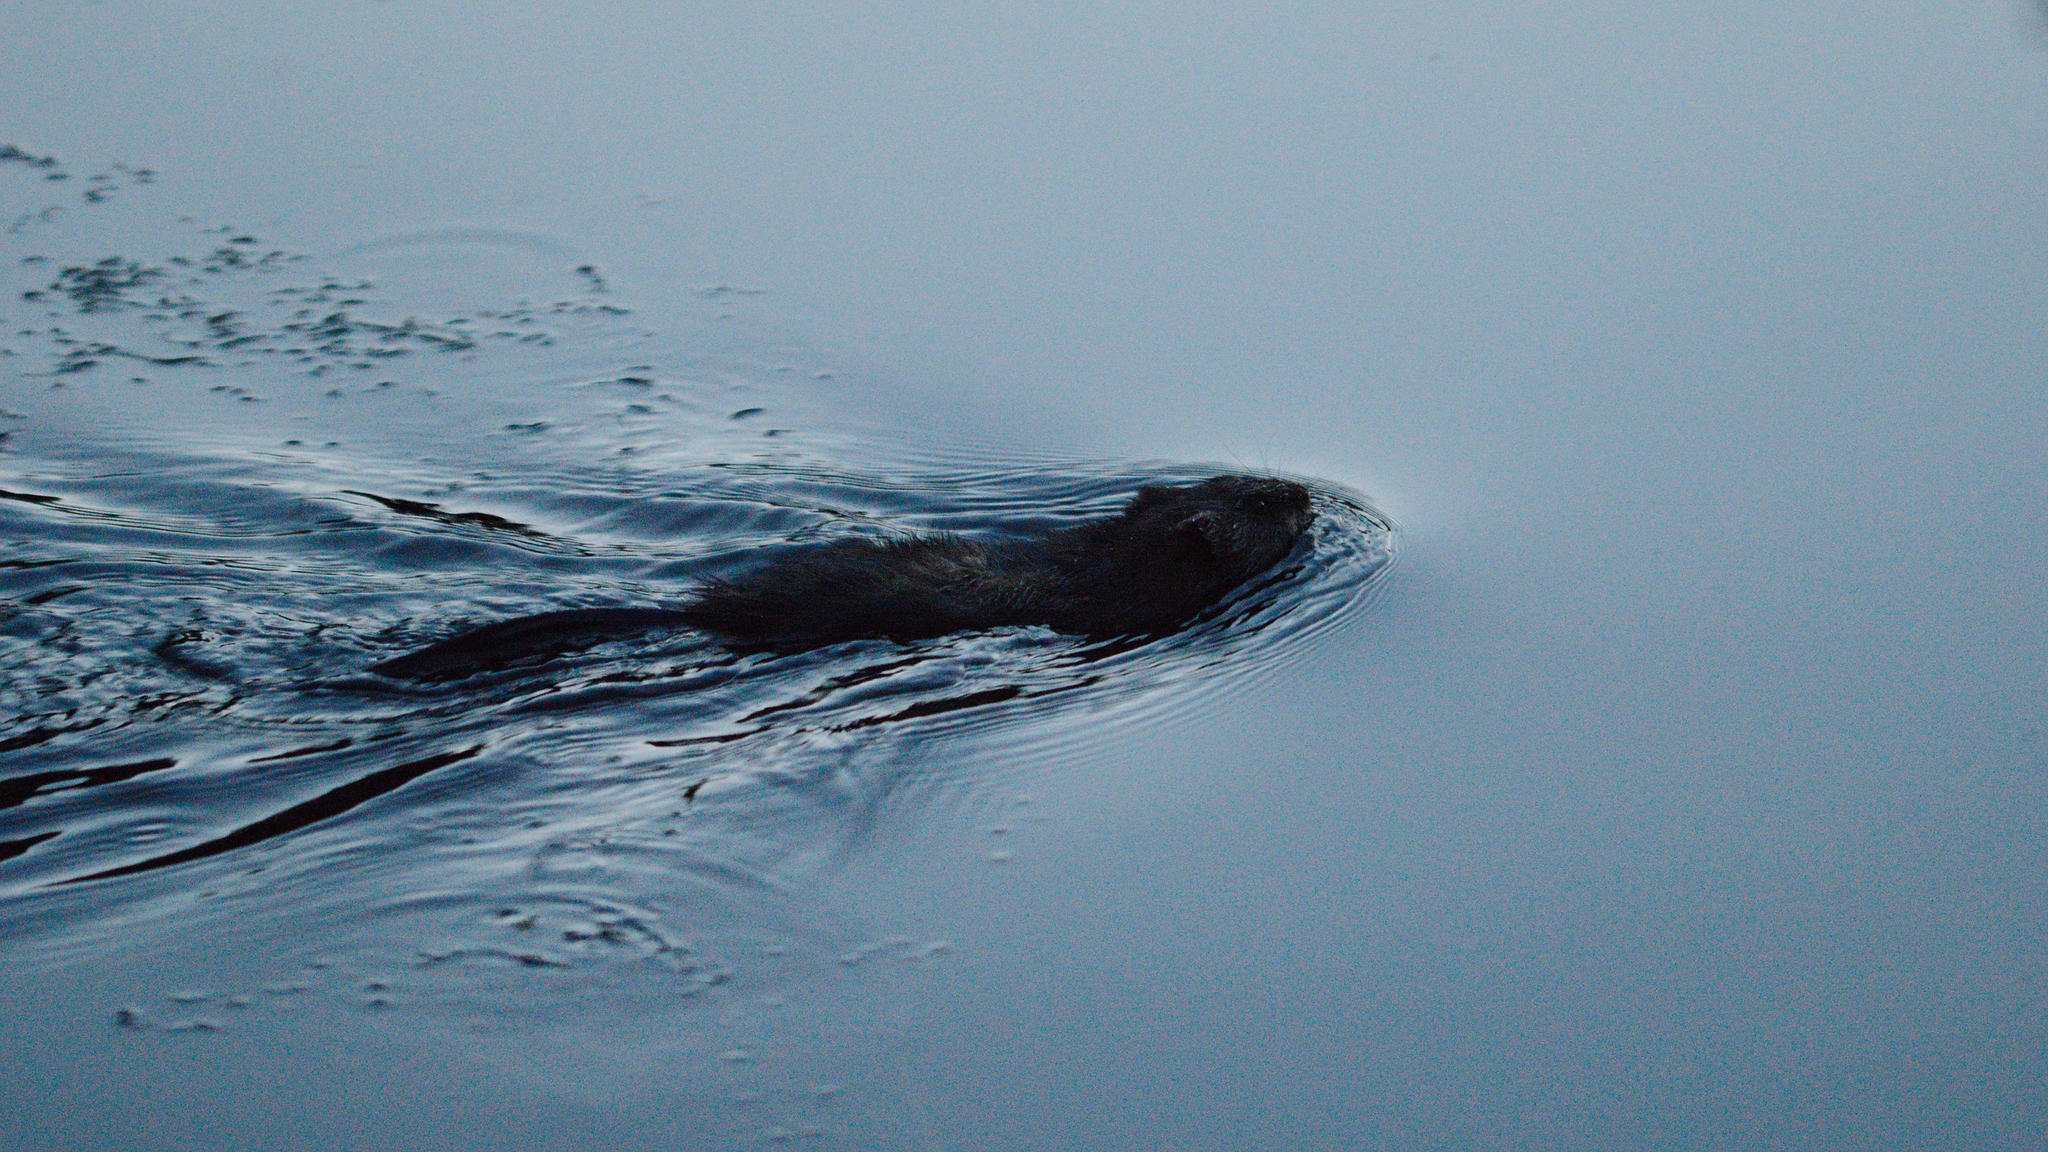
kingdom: Animalia
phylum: Chordata
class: Mammalia
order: Rodentia
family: Cricetidae
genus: Ondatra
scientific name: Ondatra zibethicus
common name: Muskrat
